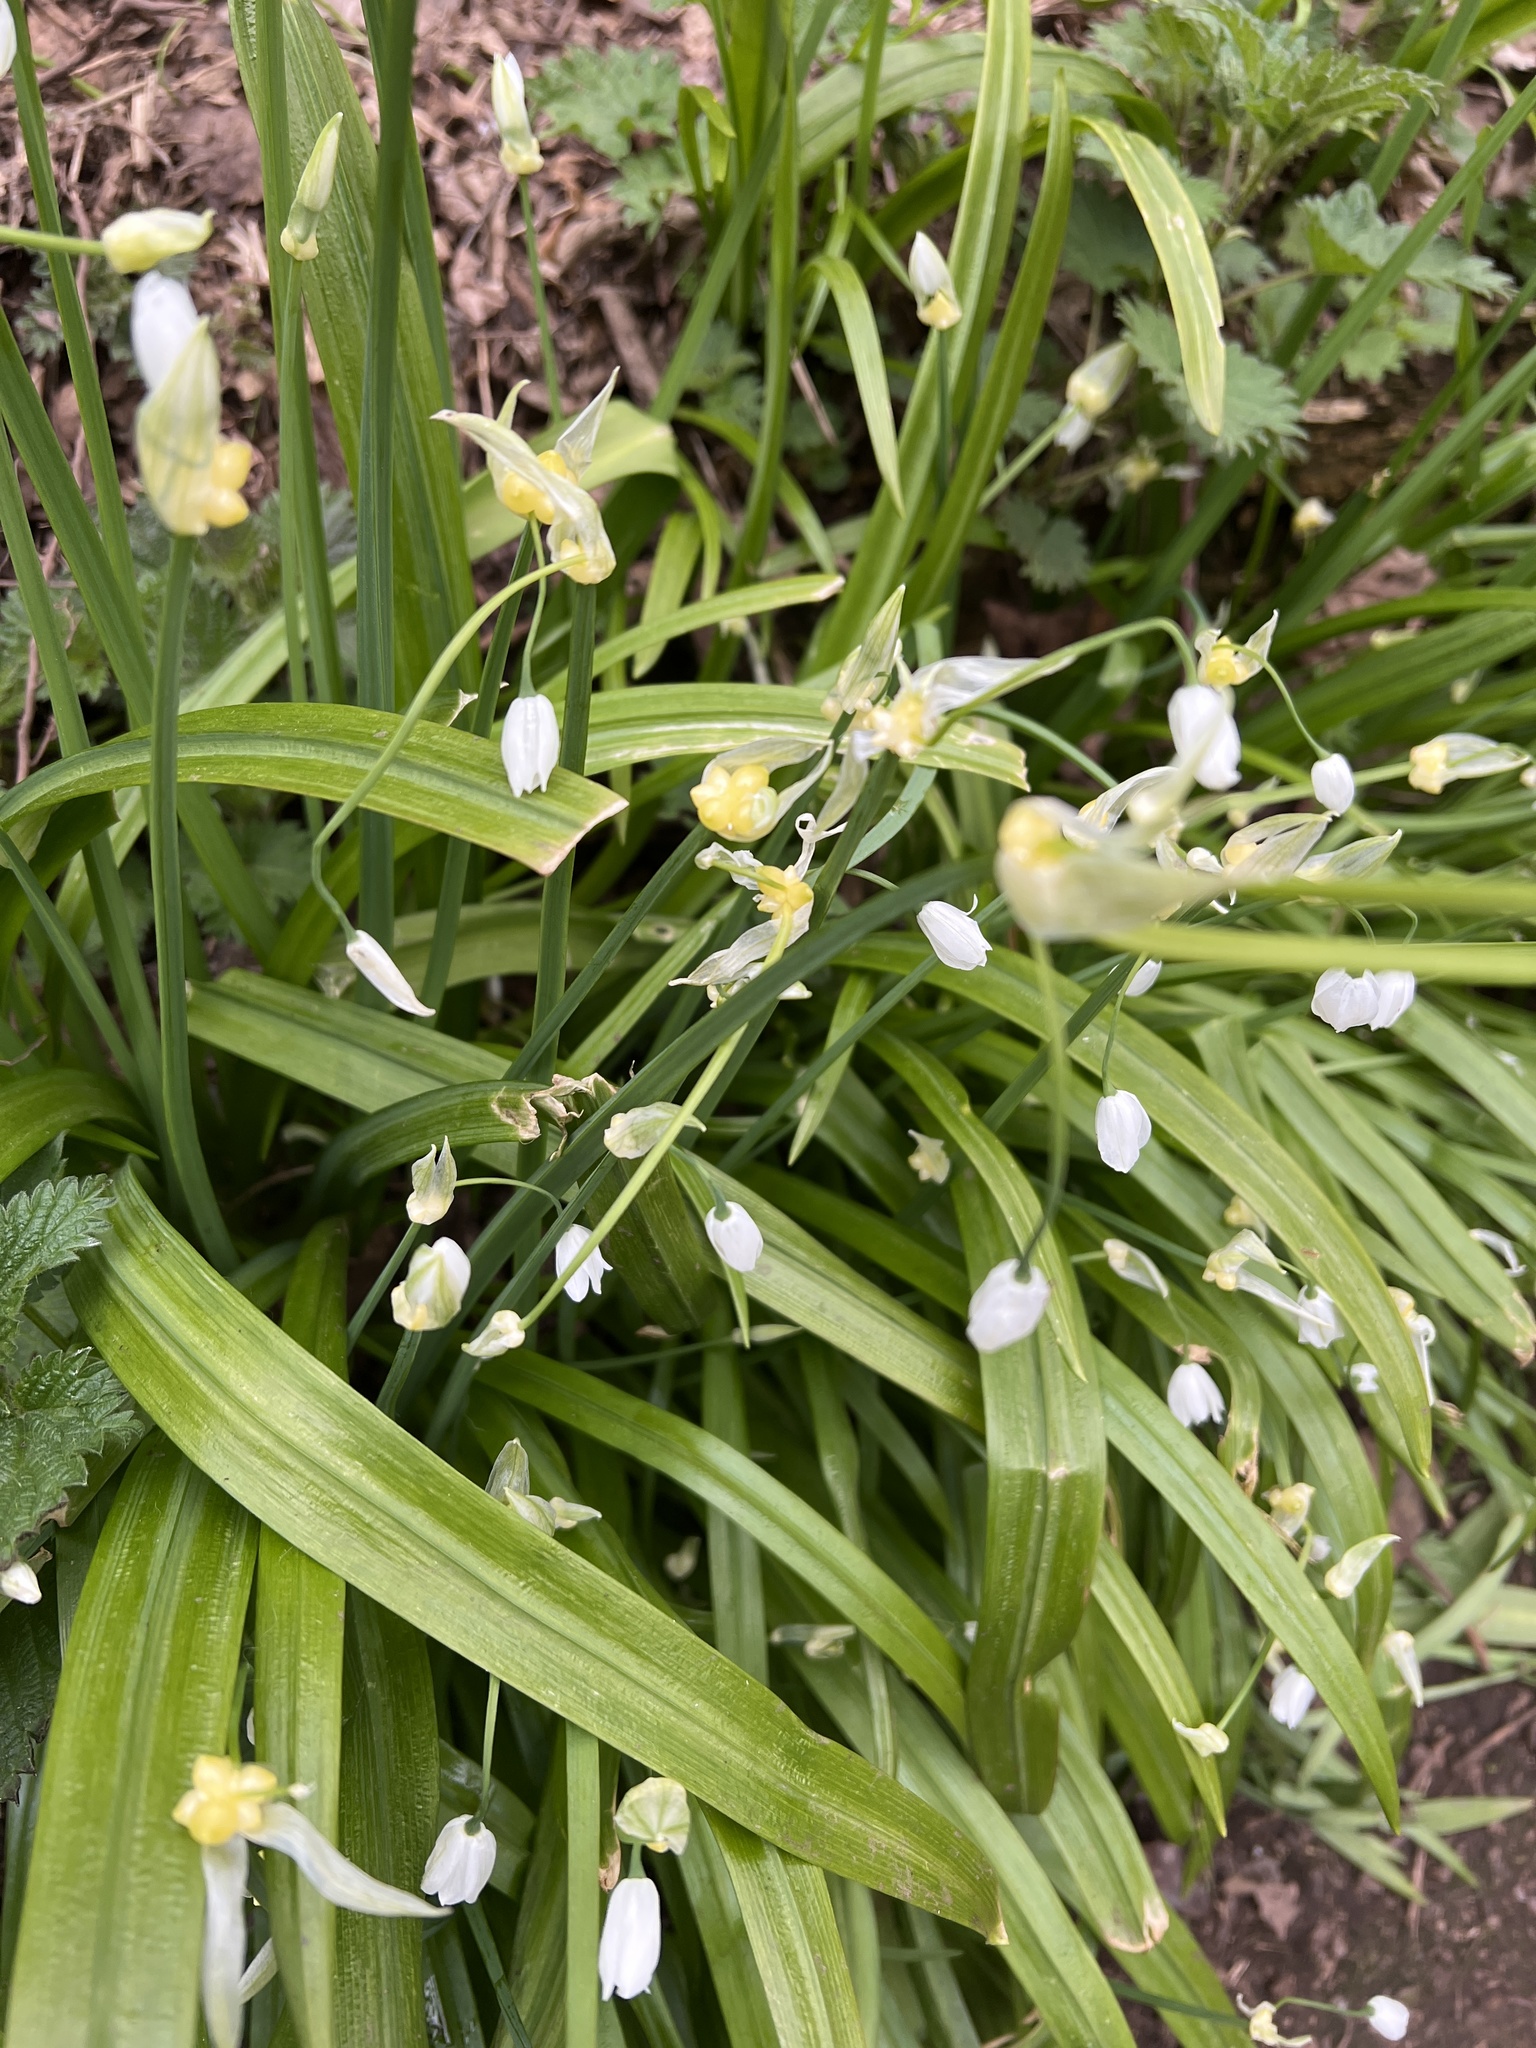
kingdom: Plantae
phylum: Tracheophyta
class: Liliopsida
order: Asparagales
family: Amaryllidaceae
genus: Allium
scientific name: Allium paradoxum
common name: Few-flowered garlic
